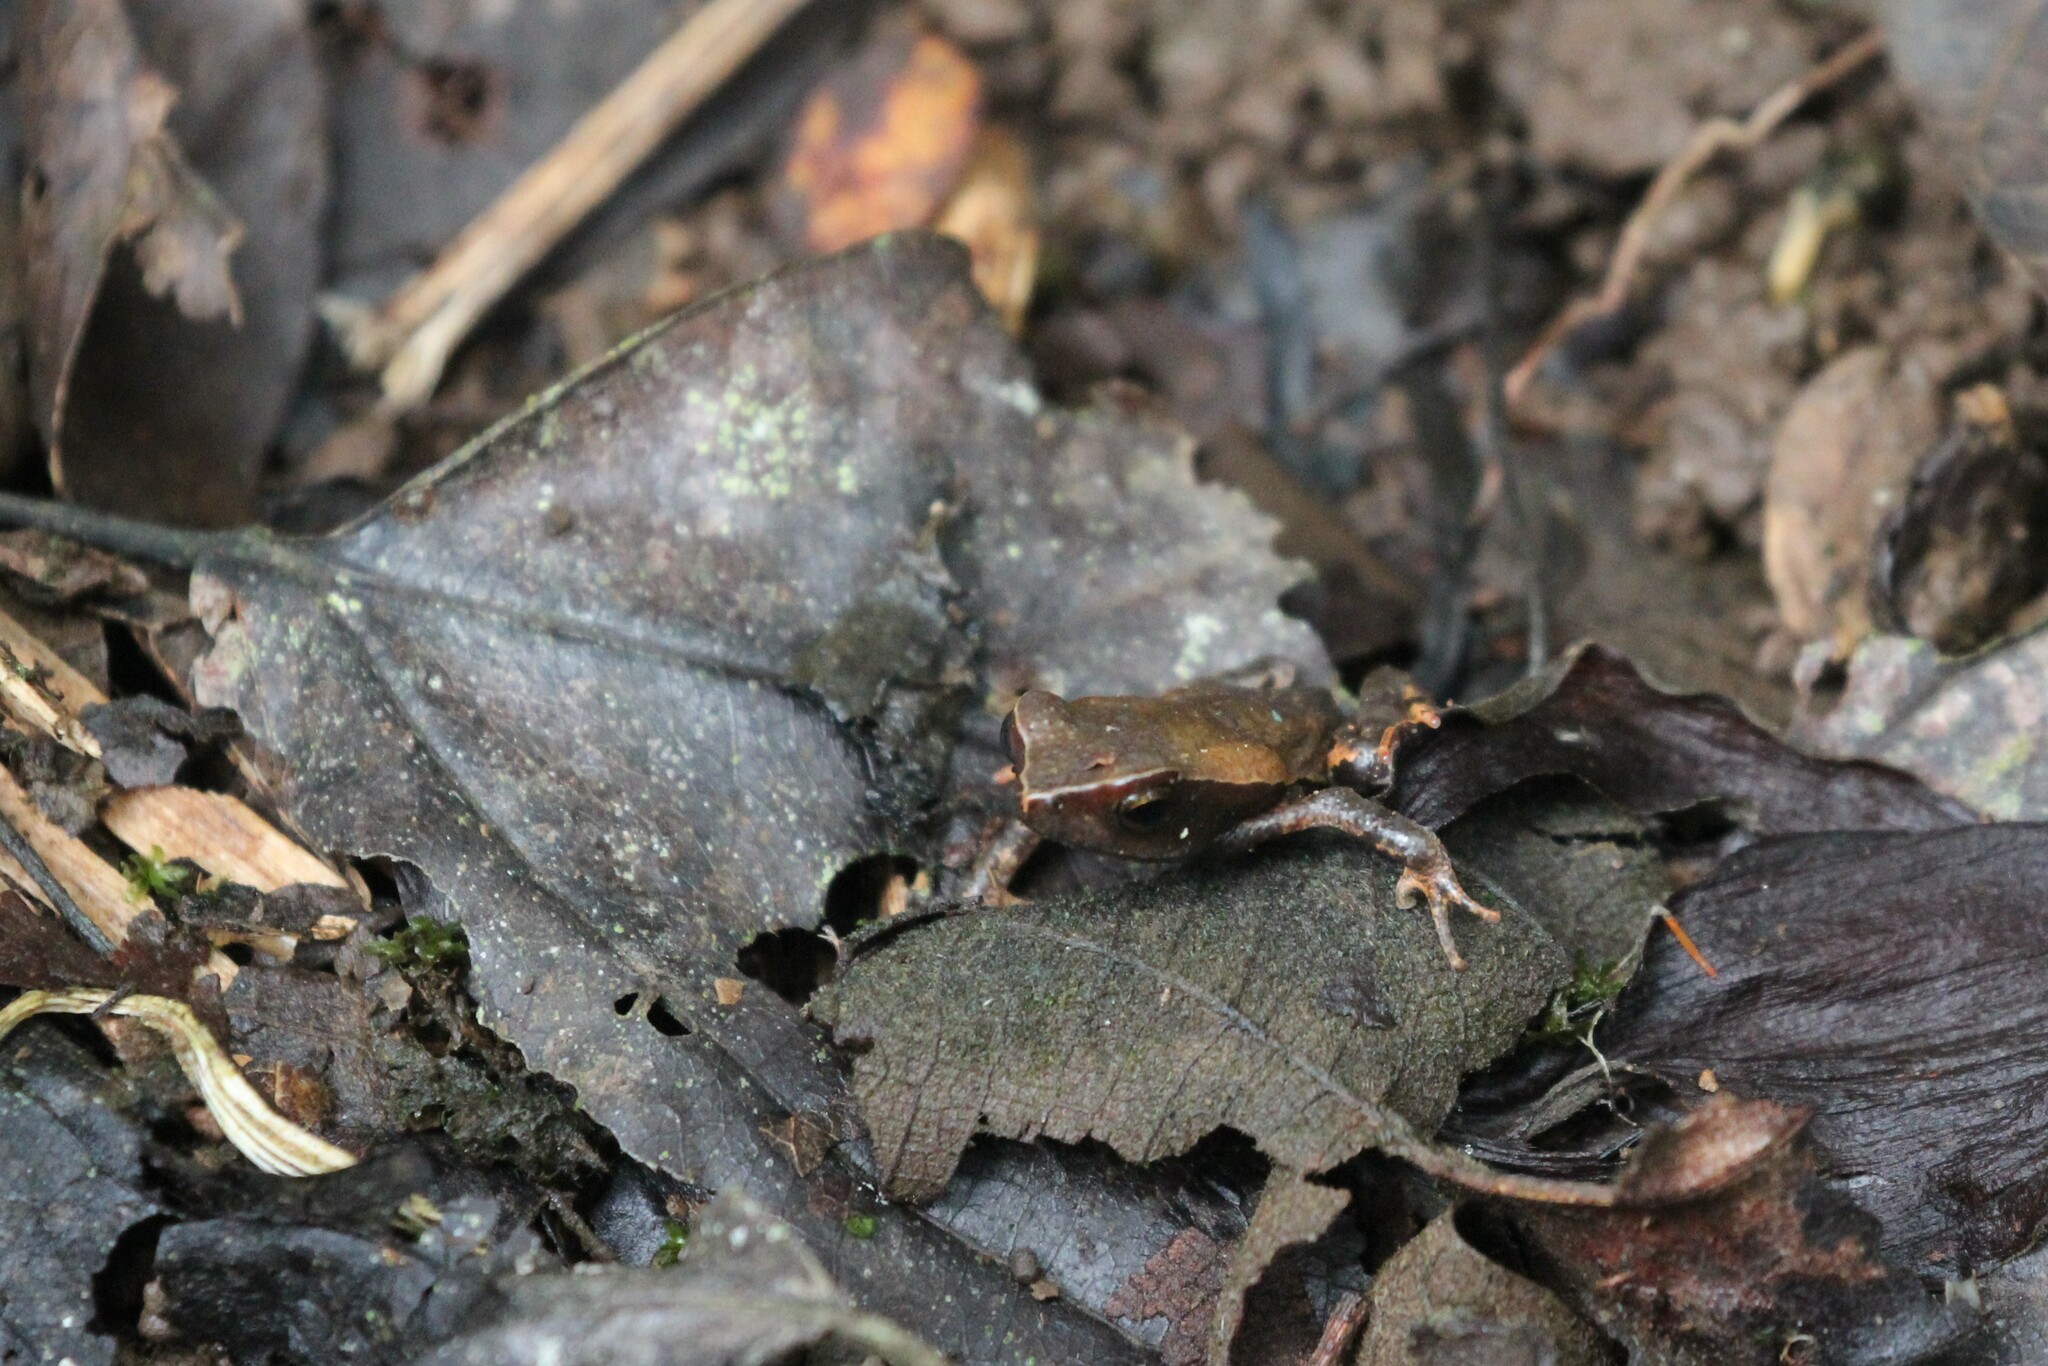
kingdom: Animalia
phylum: Chordata
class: Amphibia
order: Anura
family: Bufonidae
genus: Rhaebo
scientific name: Rhaebo haematiticus
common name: Truando toad
